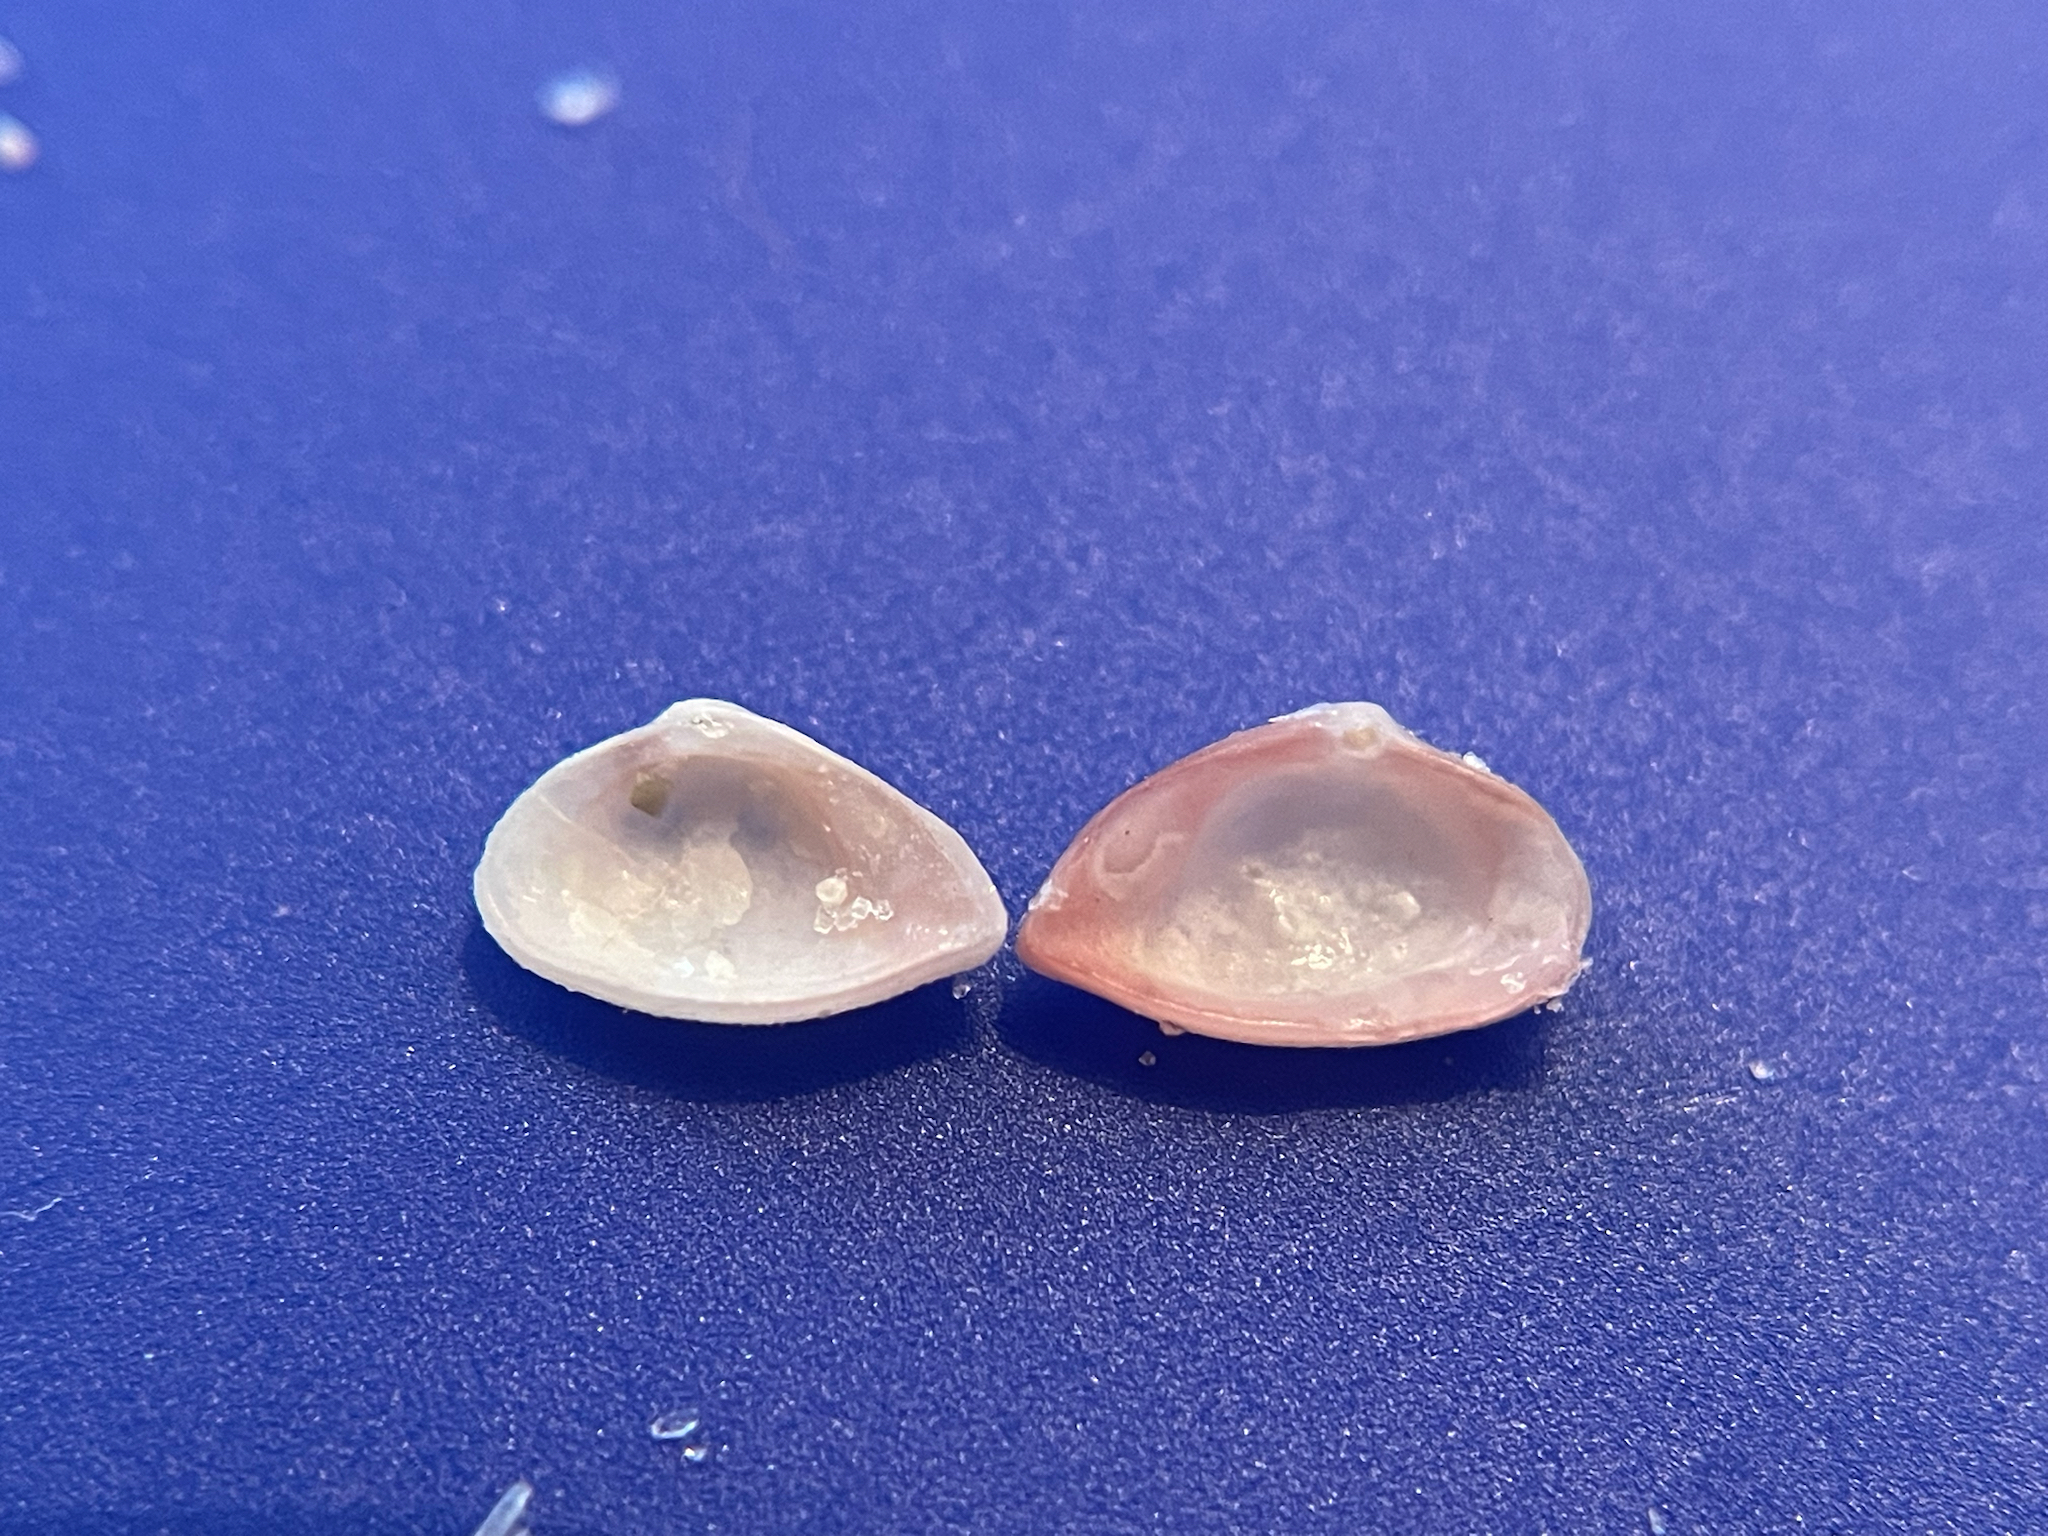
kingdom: Animalia
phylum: Mollusca
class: Bivalvia
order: Myida
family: Corbulidae
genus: Corbula
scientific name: Corbula dietziana
